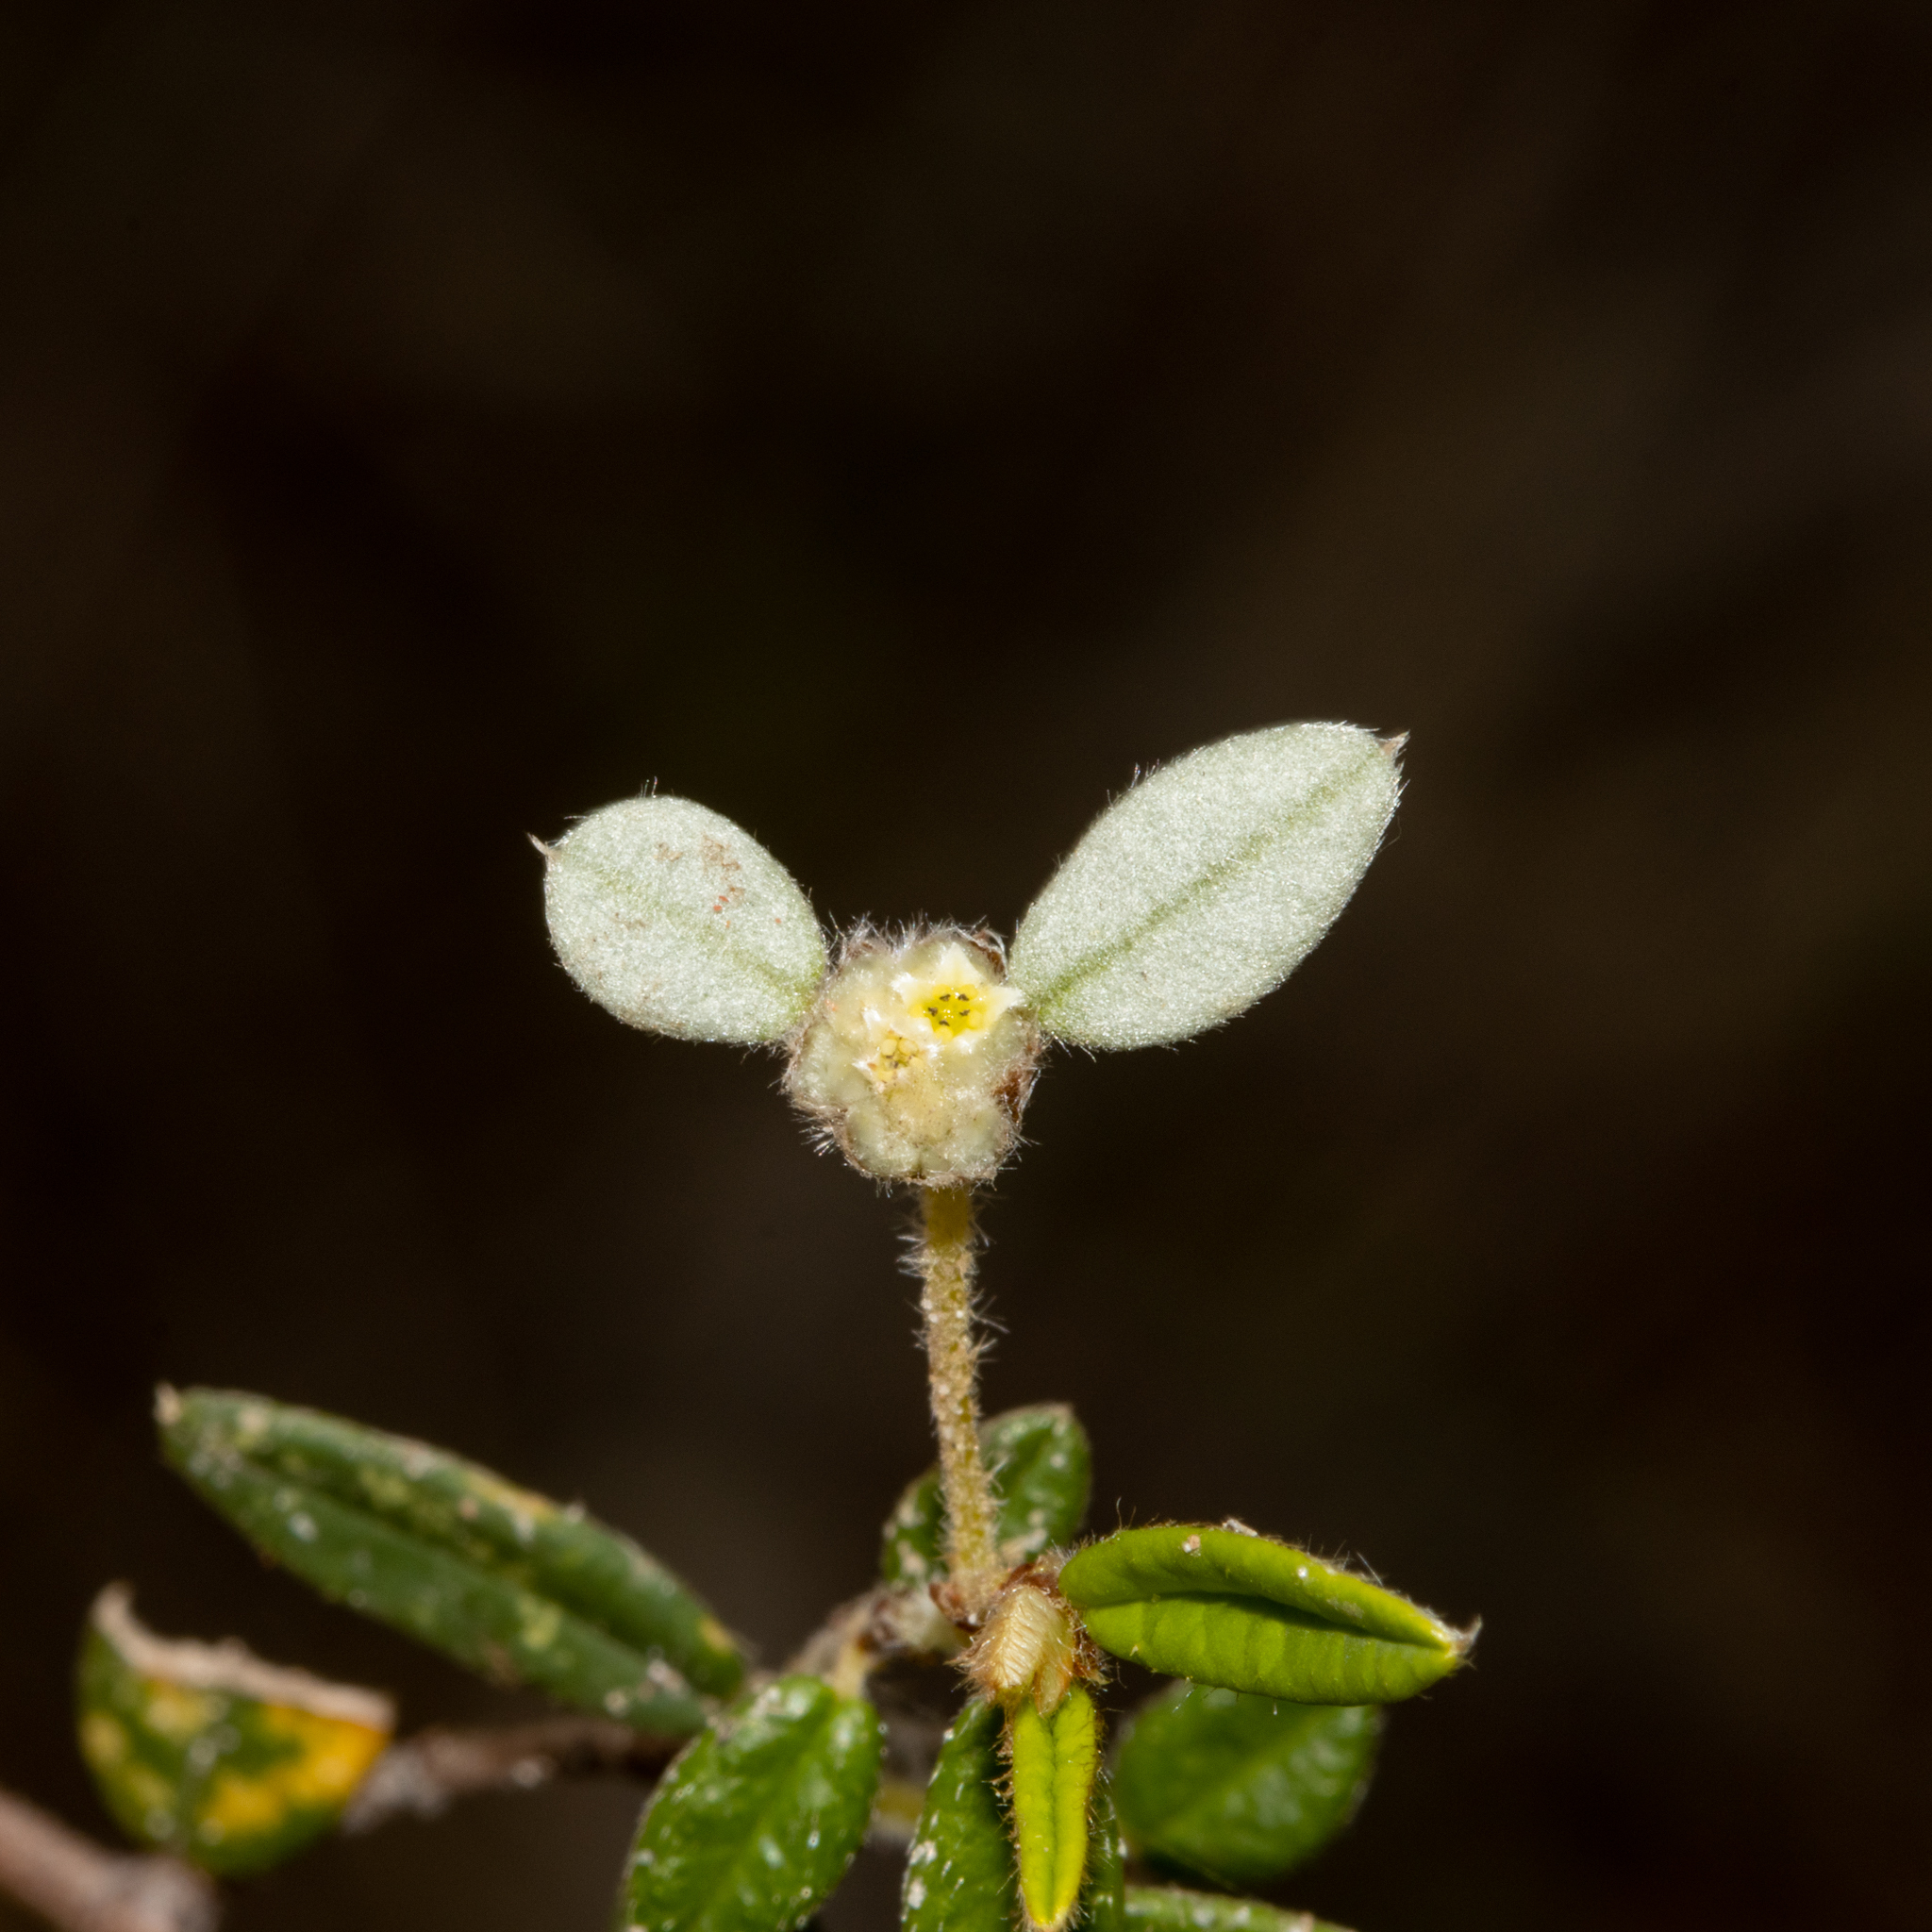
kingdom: Plantae
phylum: Tracheophyta
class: Magnoliopsida
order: Rosales
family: Rhamnaceae
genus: Spyridium
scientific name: Spyridium vexilliferum
